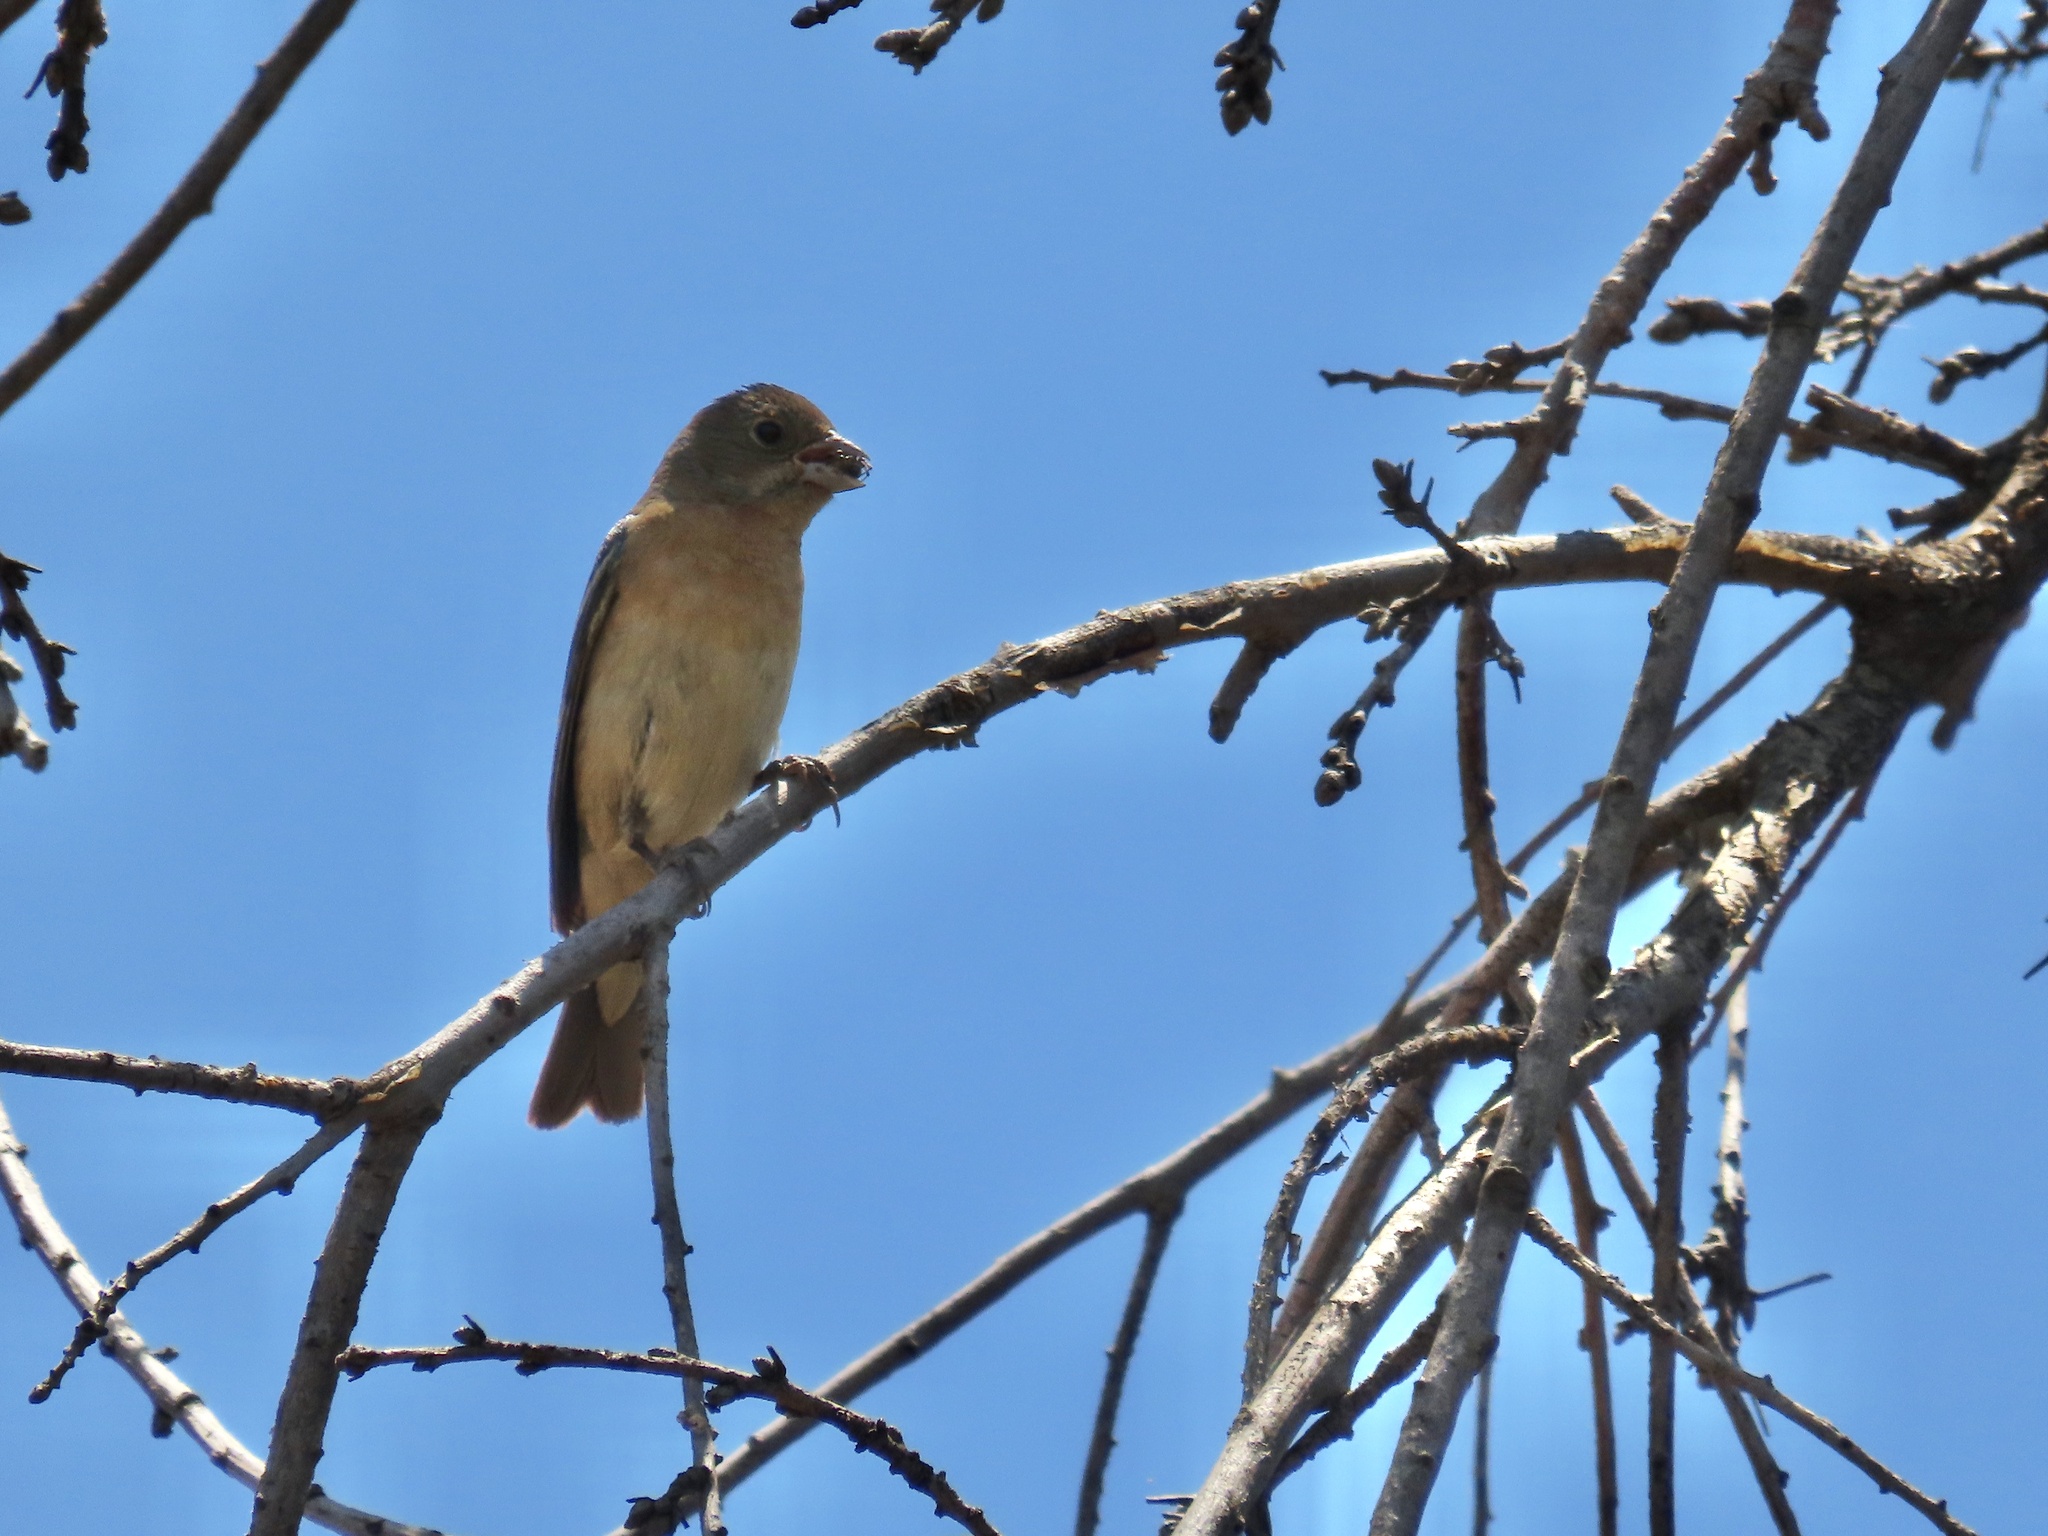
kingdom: Animalia
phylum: Chordata
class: Aves
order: Passeriformes
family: Cardinalidae
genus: Passerina
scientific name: Passerina amoena
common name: Lazuli bunting
